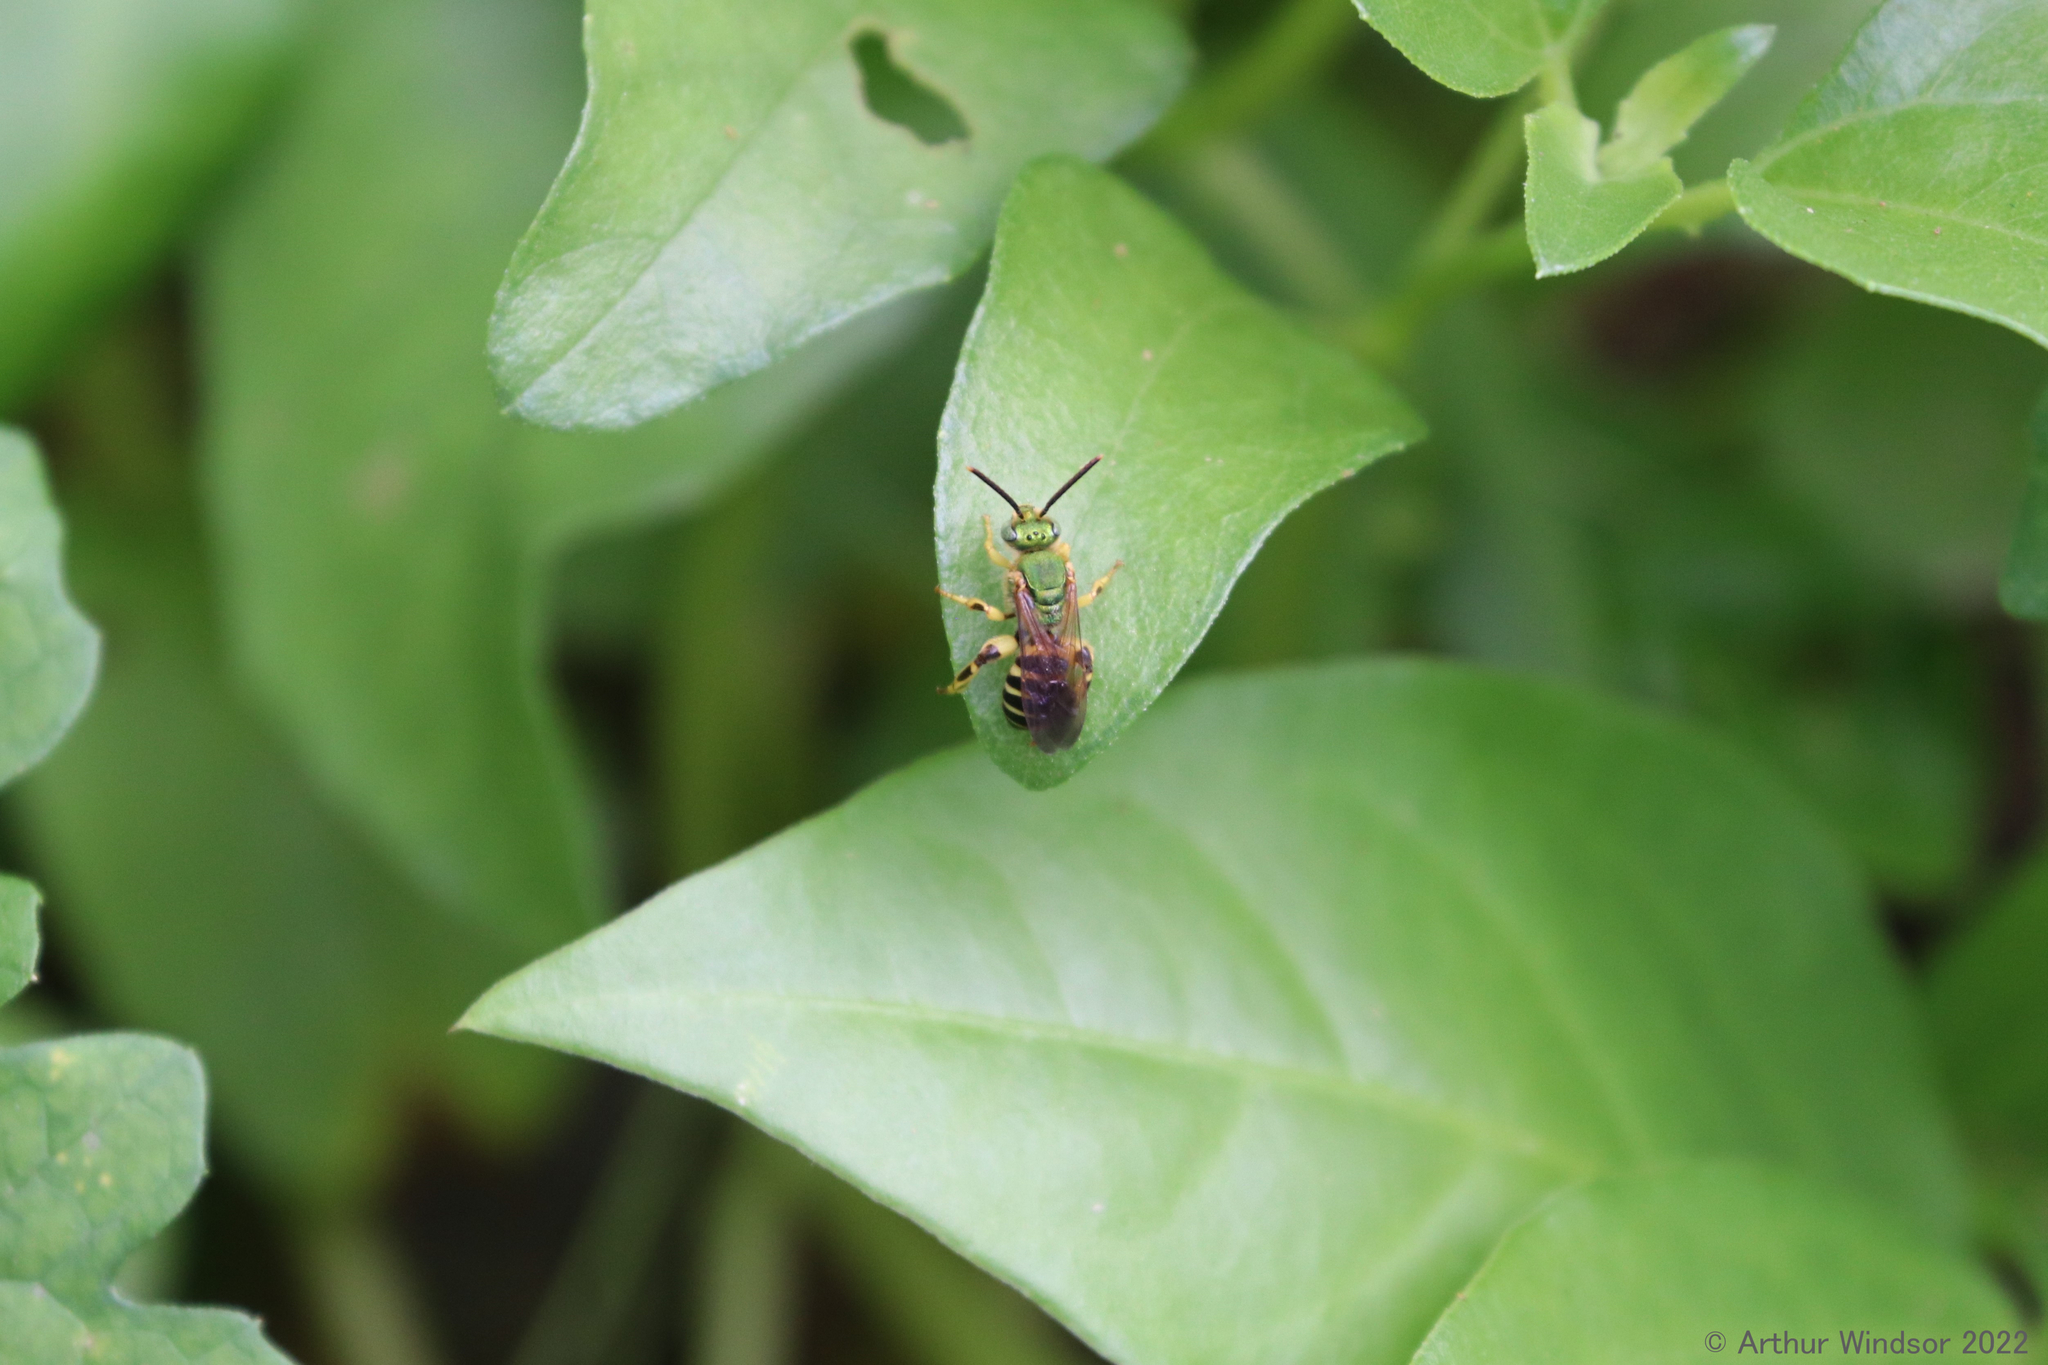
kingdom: Animalia
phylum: Arthropoda
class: Insecta
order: Hymenoptera
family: Halictidae
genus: Agapostemon
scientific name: Agapostemon splendens
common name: Brown-winged striped sweat bee
